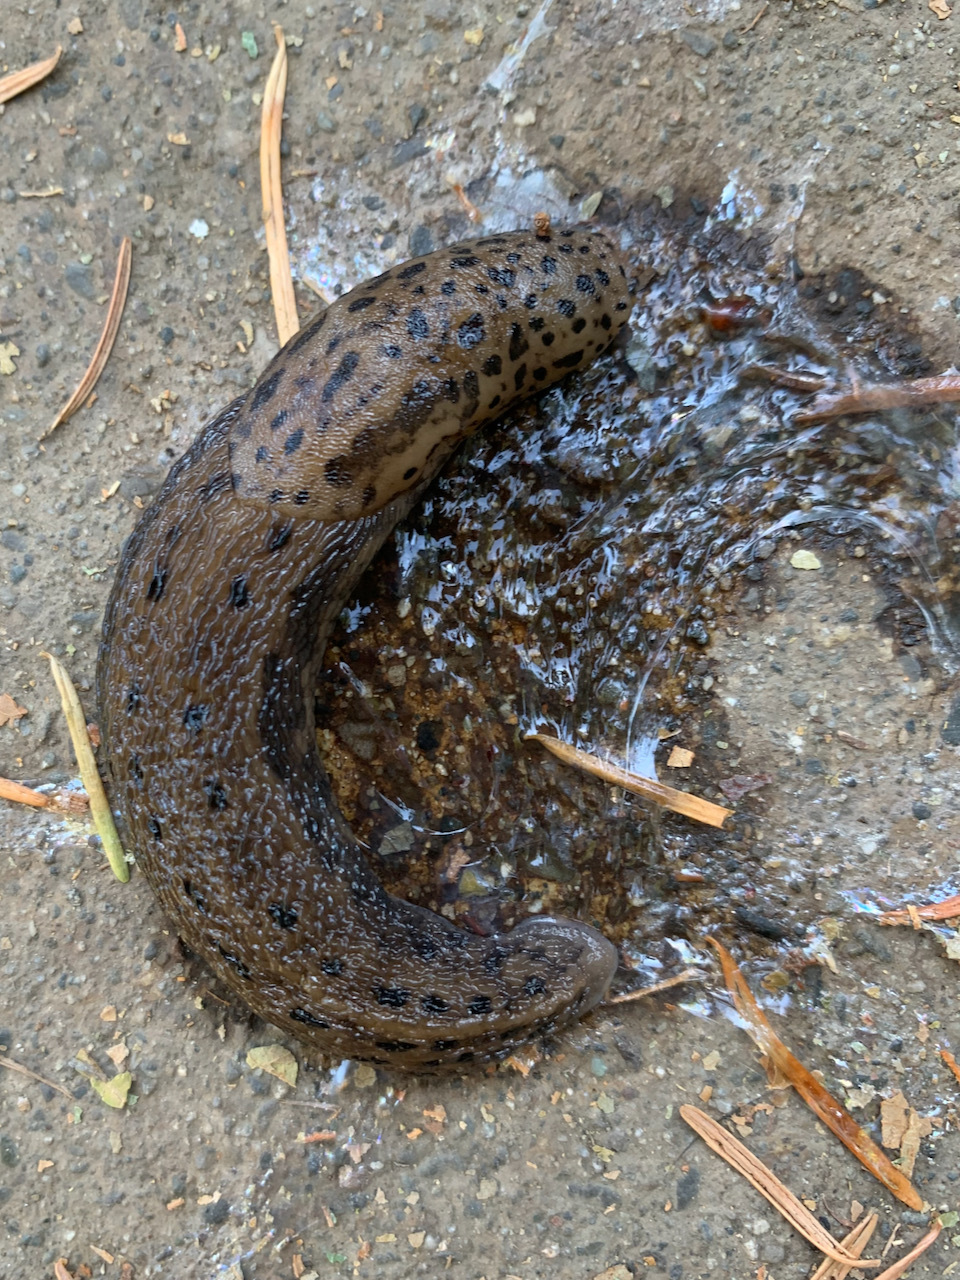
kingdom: Animalia
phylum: Mollusca
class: Gastropoda
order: Stylommatophora
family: Limacidae
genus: Limax
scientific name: Limax maximus
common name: Great grey slug
